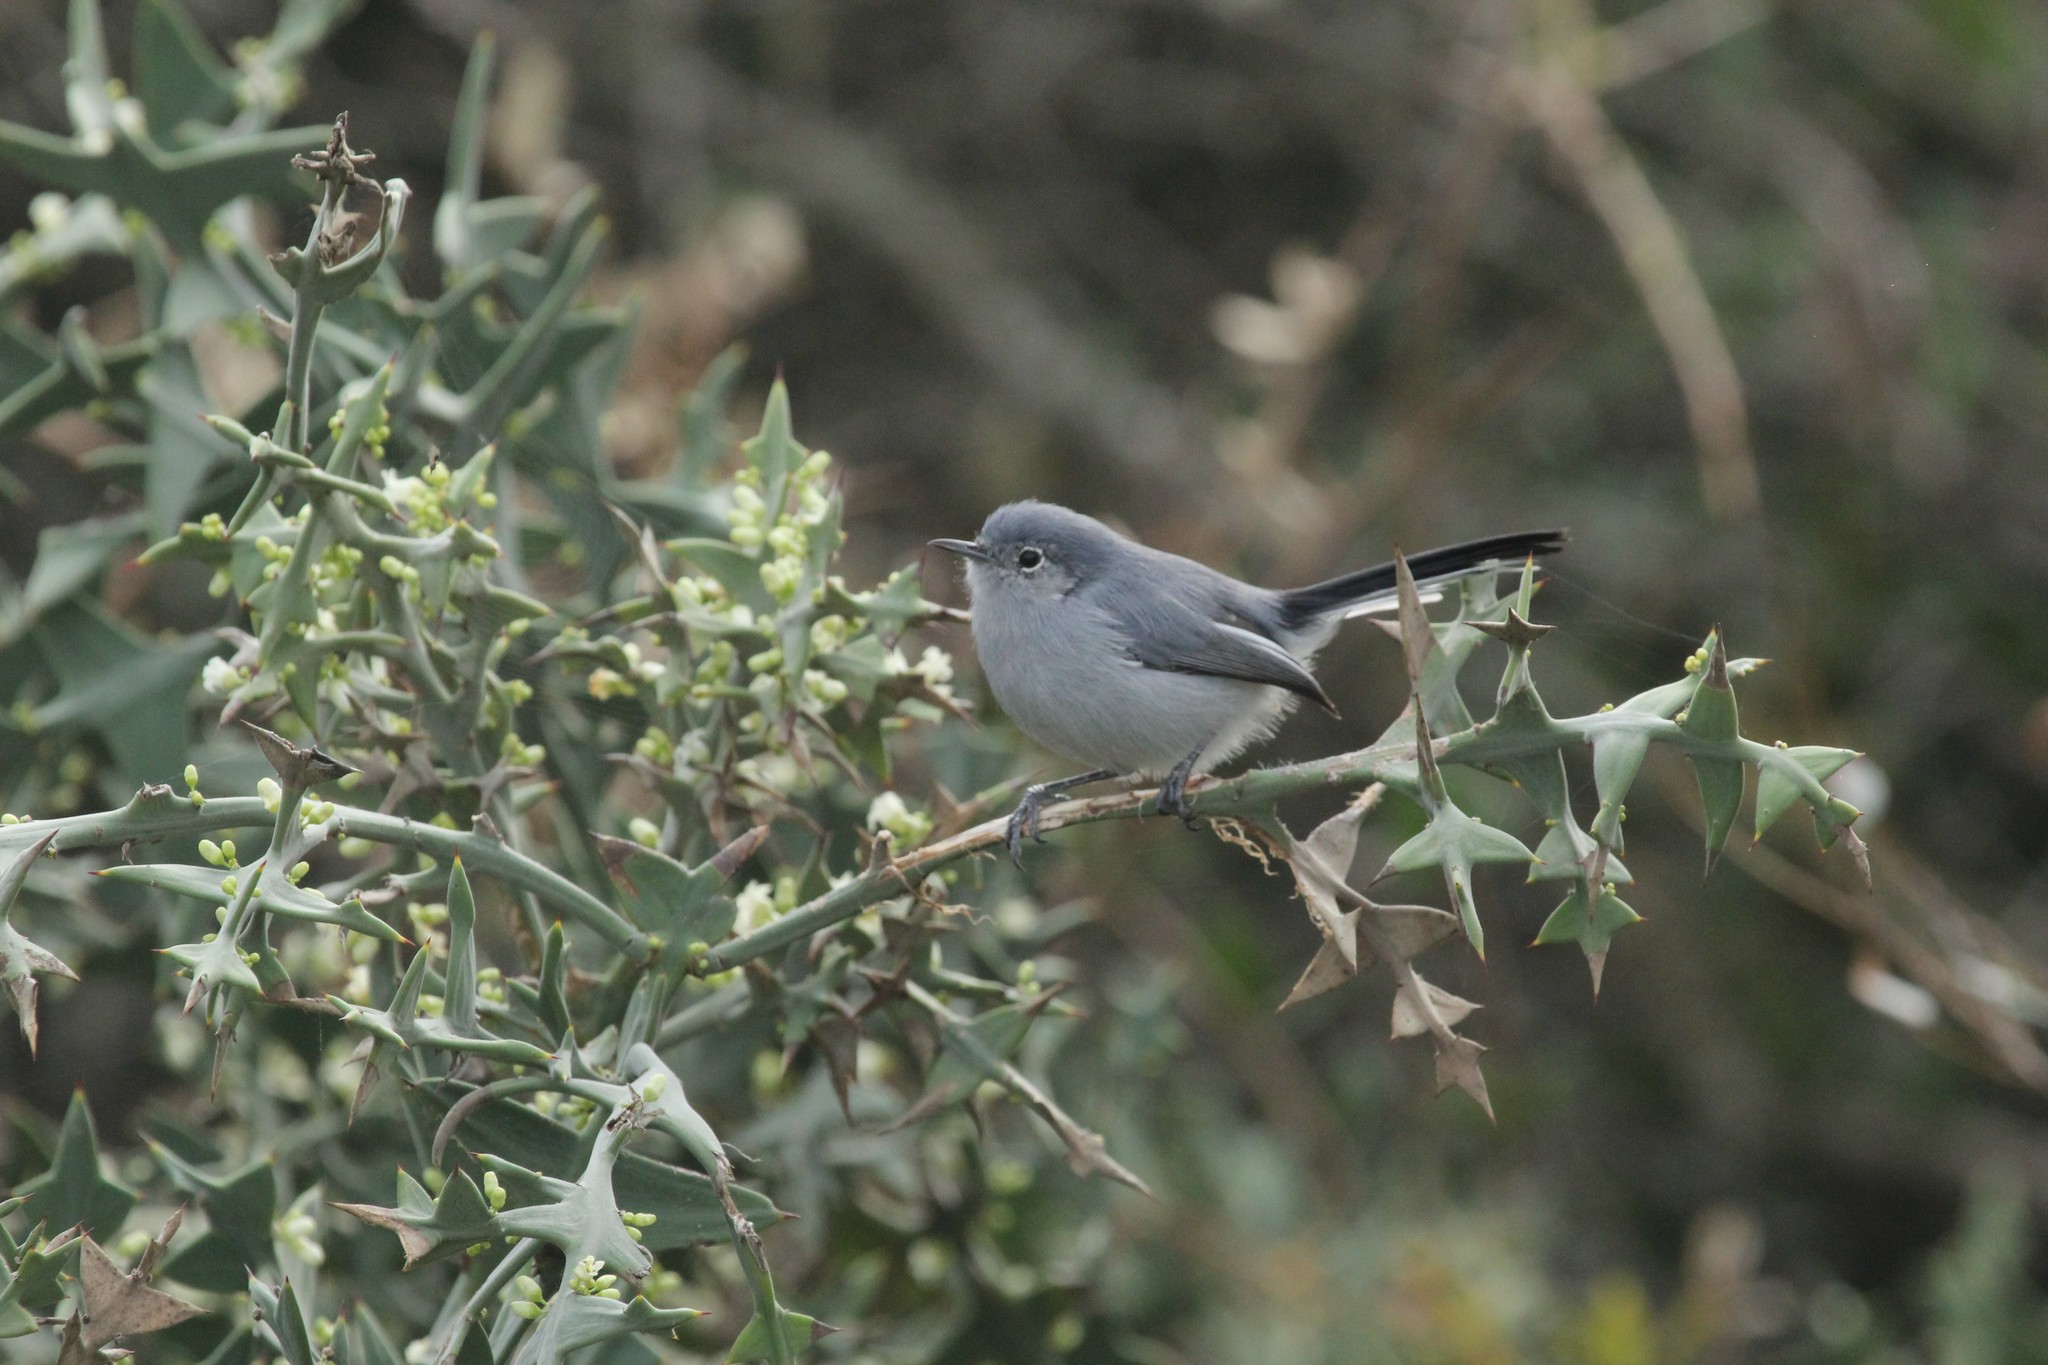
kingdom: Animalia
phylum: Chordata
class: Aves
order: Passeriformes
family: Polioptilidae
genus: Polioptila
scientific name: Polioptila dumicola
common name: Masked gnatcatcher
